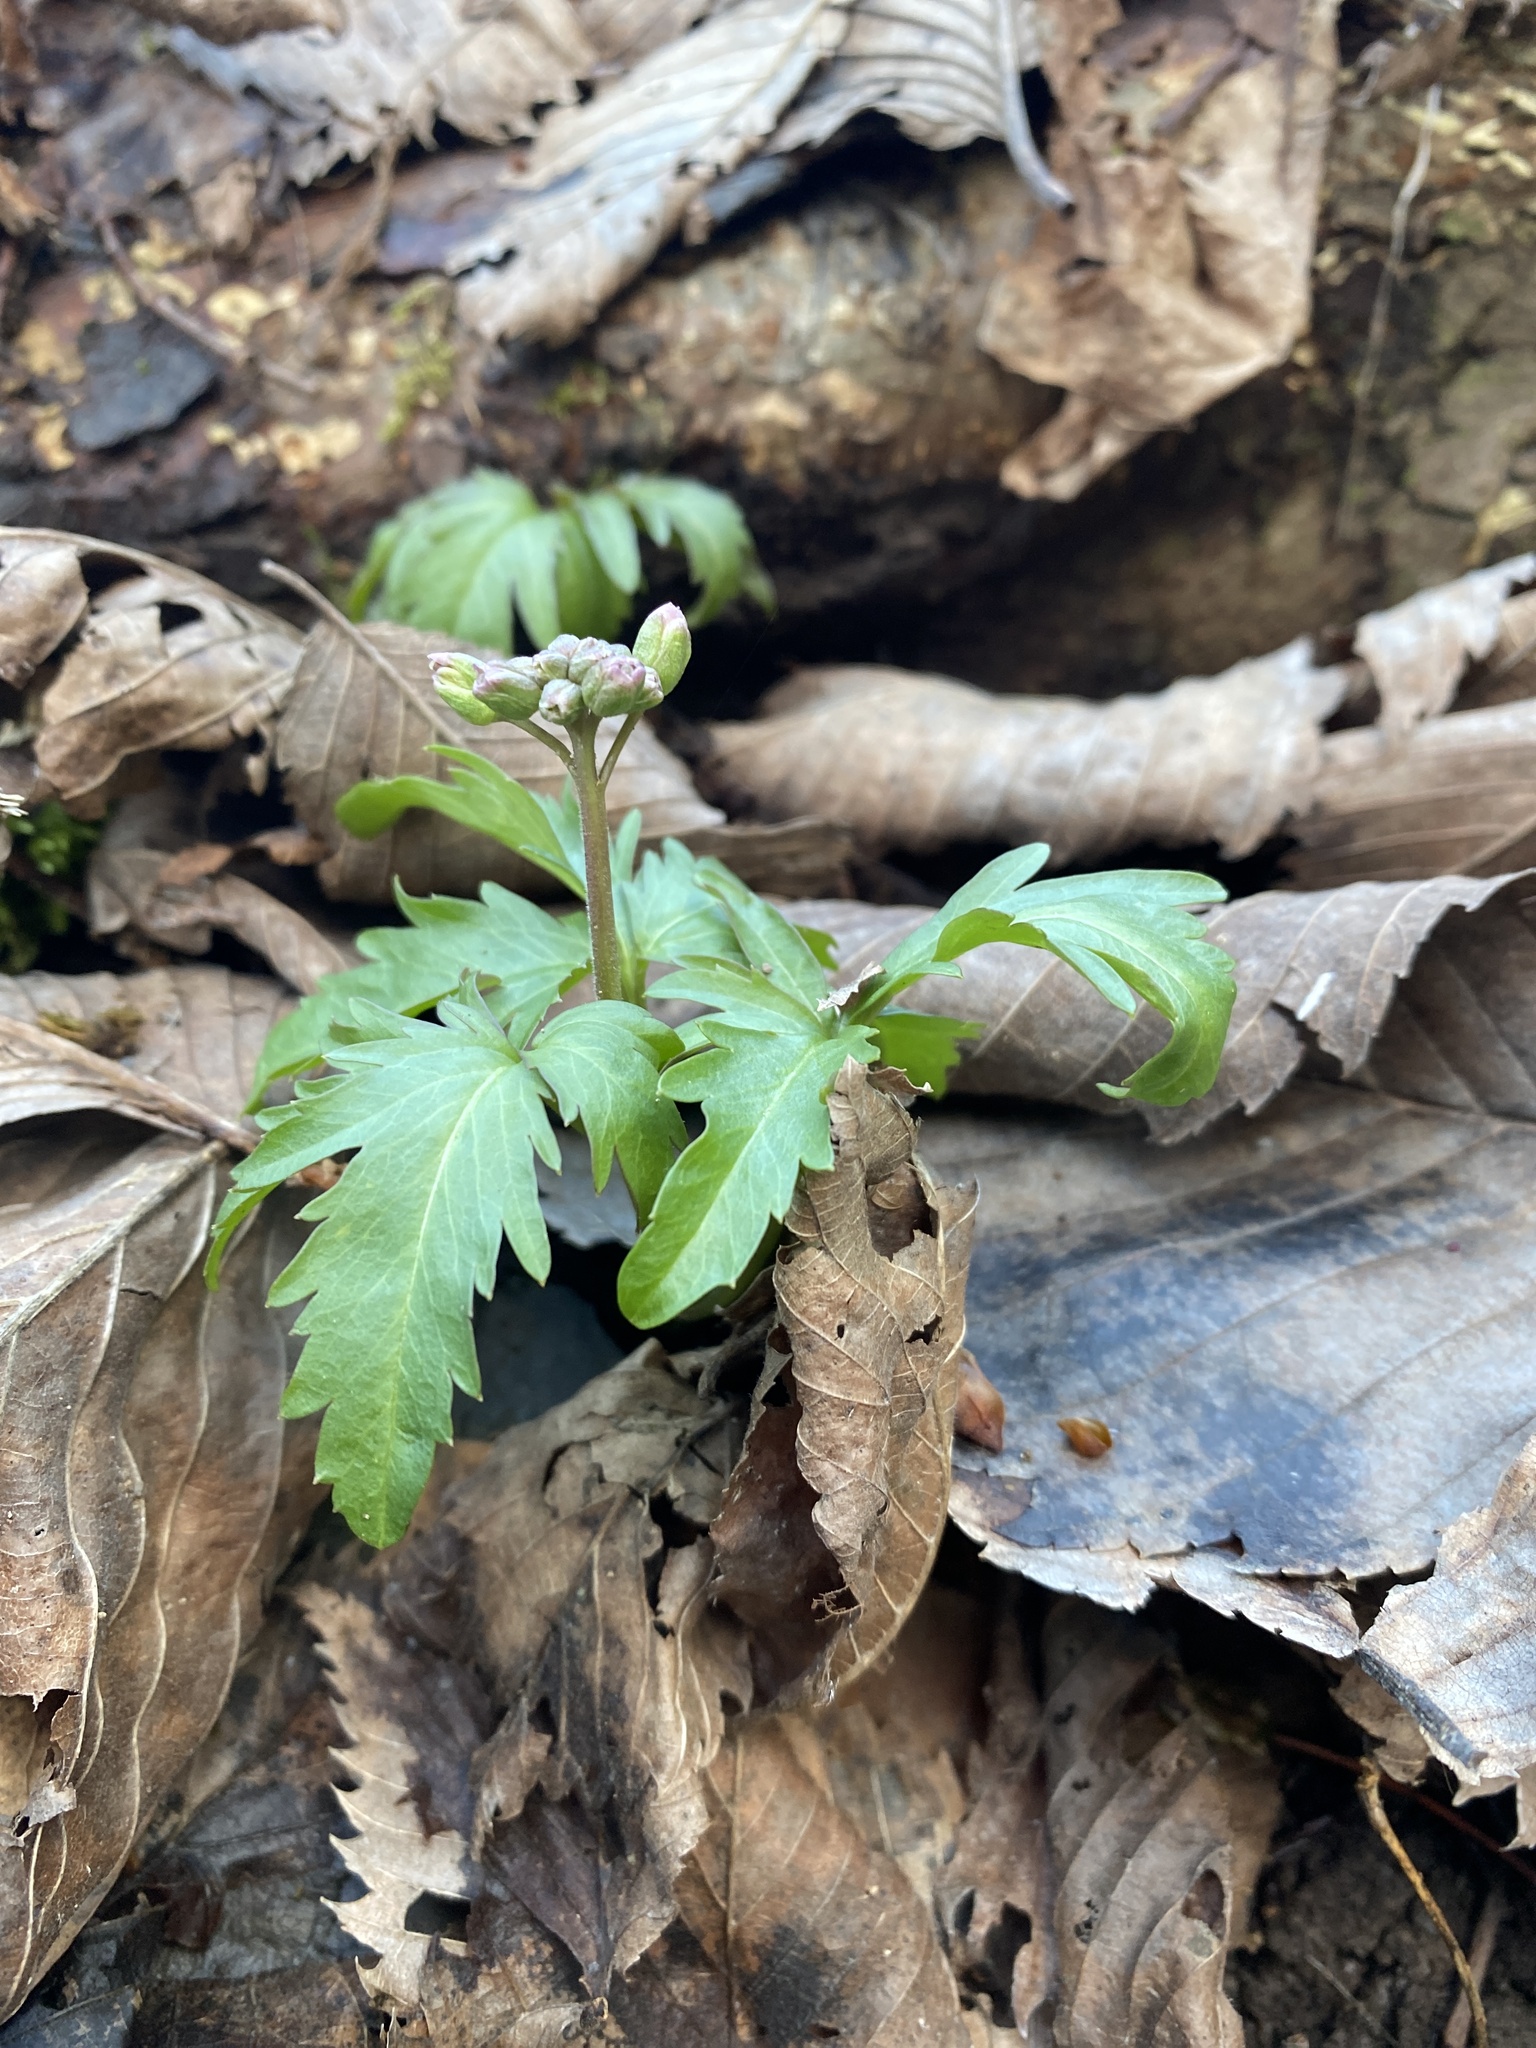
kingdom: Plantae
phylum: Tracheophyta
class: Magnoliopsida
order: Brassicales
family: Brassicaceae
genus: Cardamine
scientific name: Cardamine concatenata
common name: Cut-leaf toothcup
